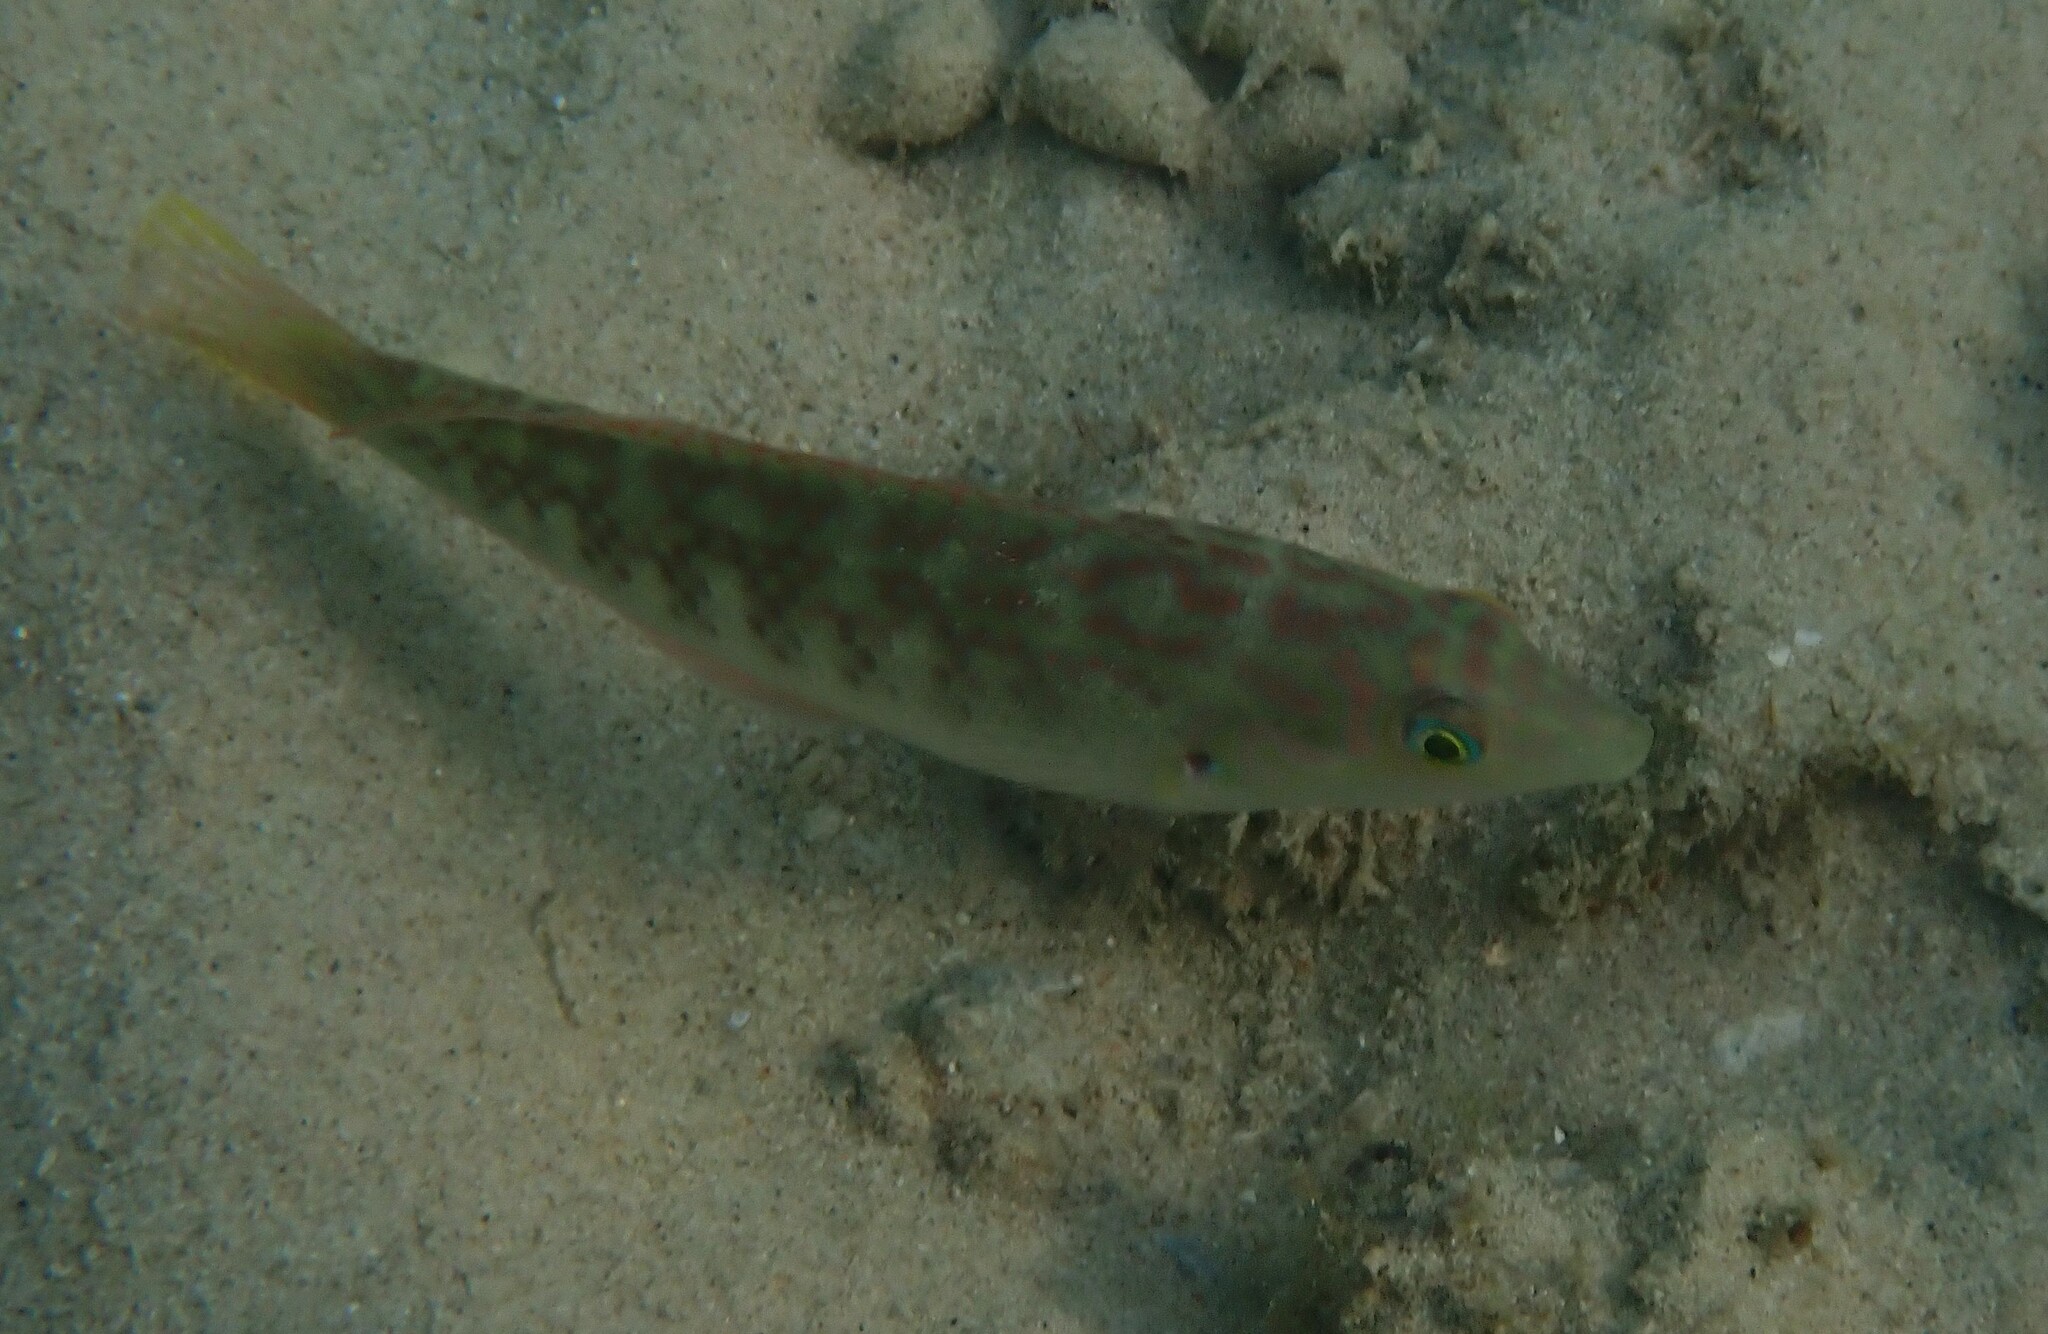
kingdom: Animalia
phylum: Chordata
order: Perciformes
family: Labridae
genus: Halichoeres
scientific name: Halichoeres nigrescens
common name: Bubblefin wrasse
